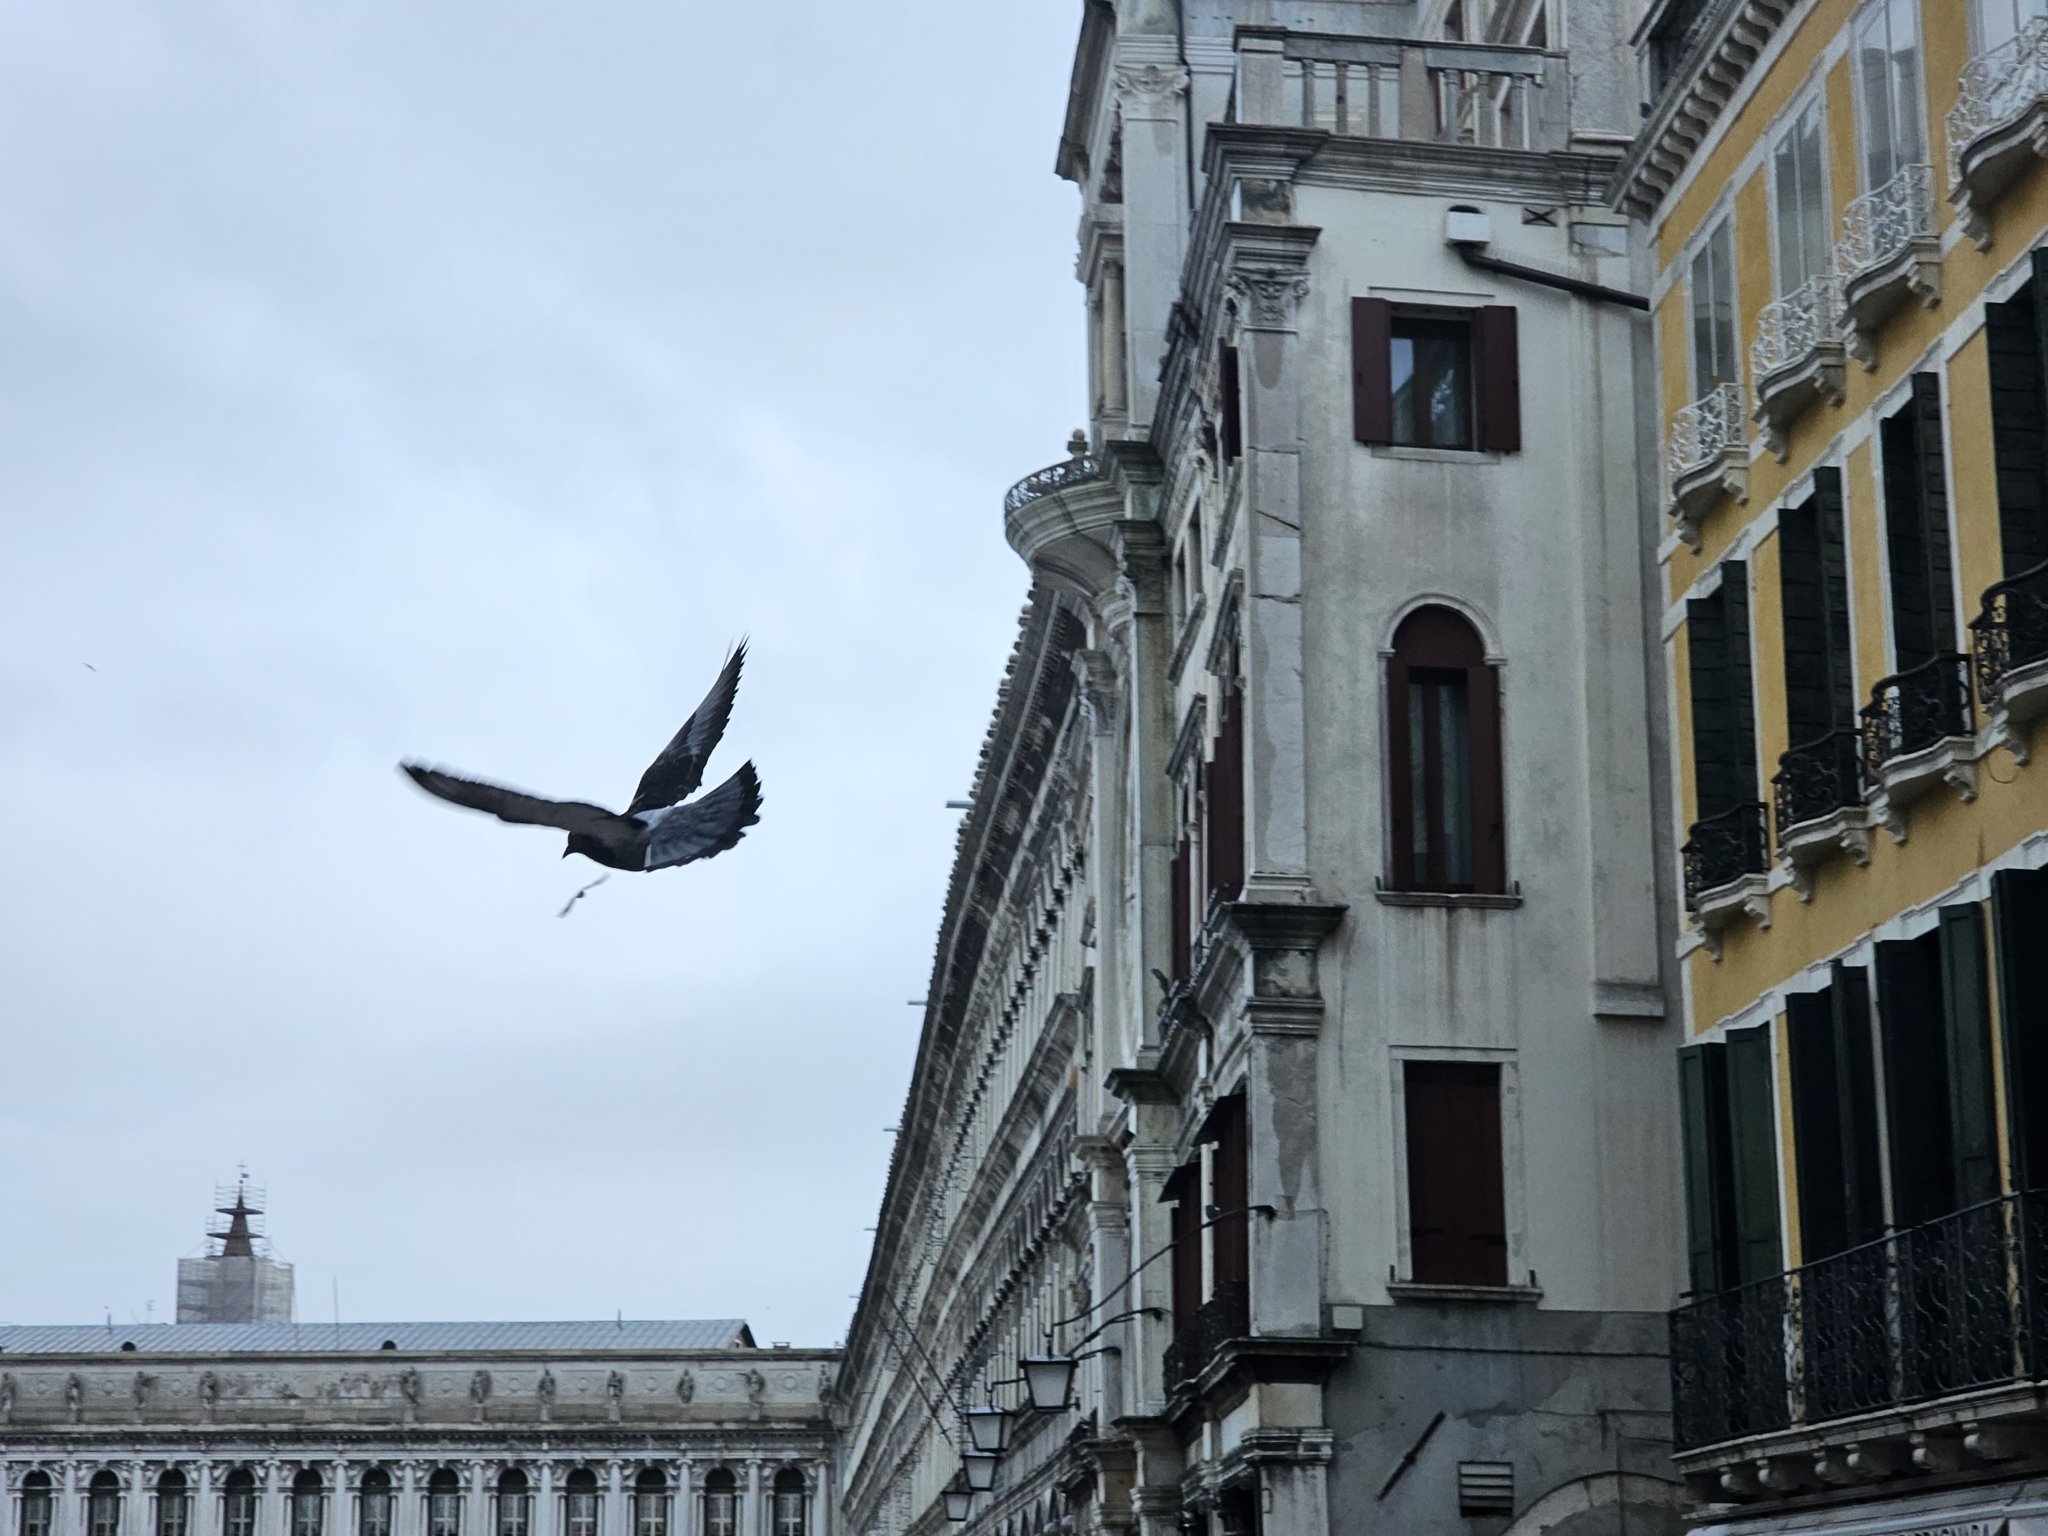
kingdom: Animalia
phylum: Chordata
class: Aves
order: Columbiformes
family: Columbidae
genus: Columba
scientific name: Columba livia
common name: Rock pigeon
